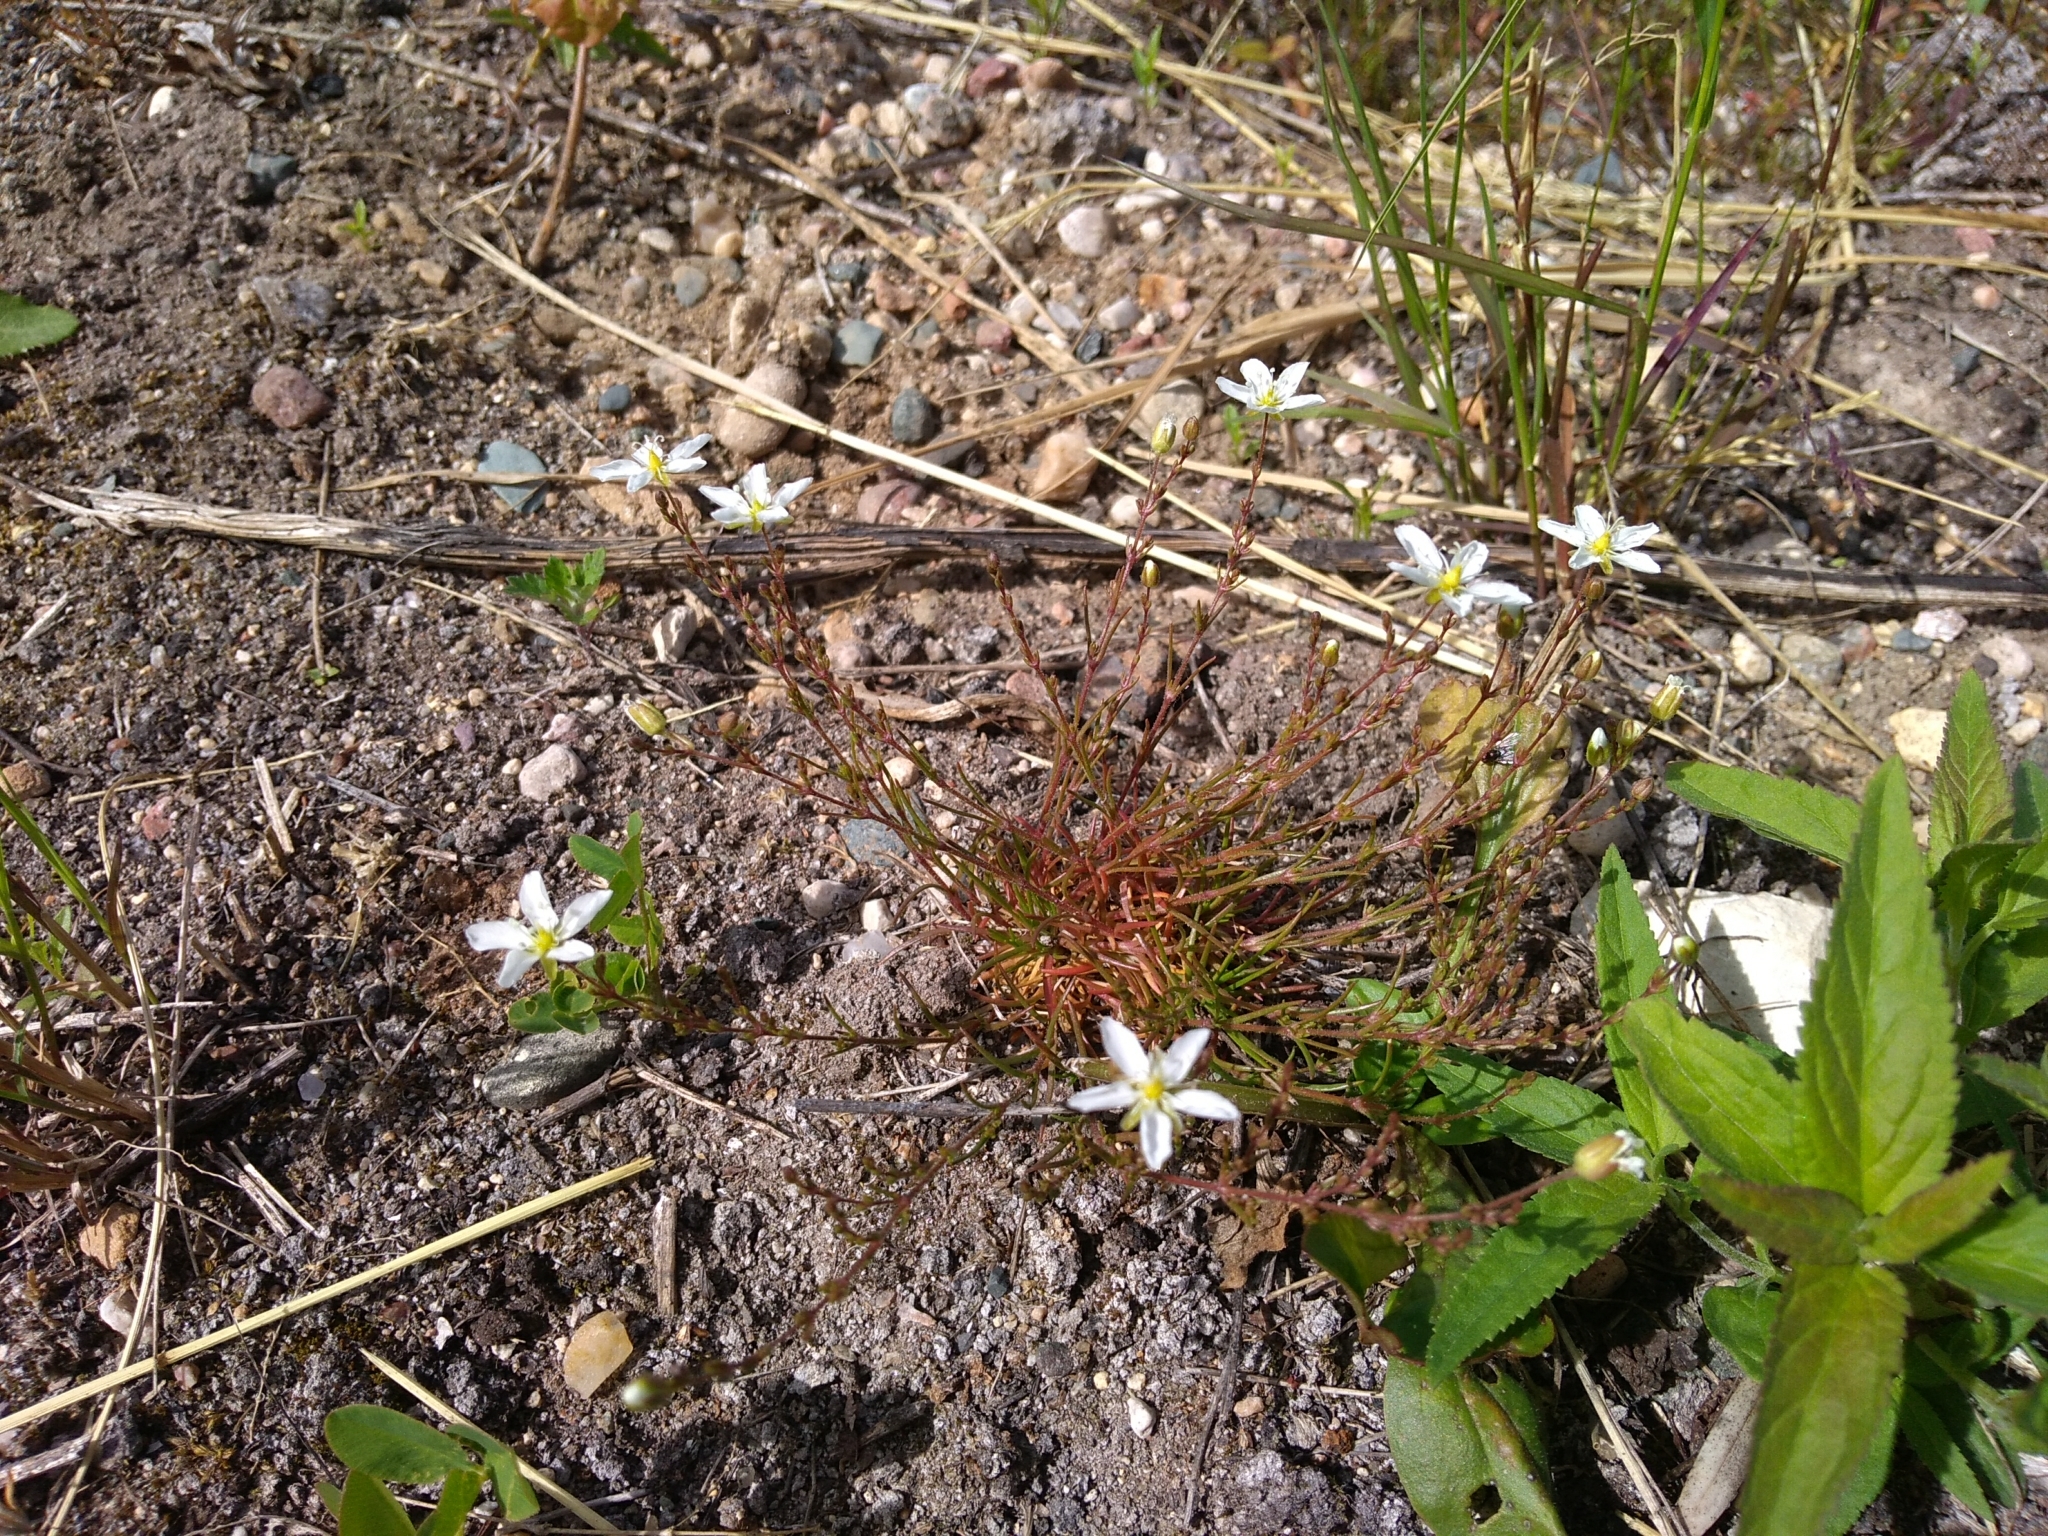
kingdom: Plantae
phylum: Tracheophyta
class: Magnoliopsida
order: Caryophyllales
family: Caryophyllaceae
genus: Sagina
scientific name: Sagina nodosa
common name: Knotted pearlwort
